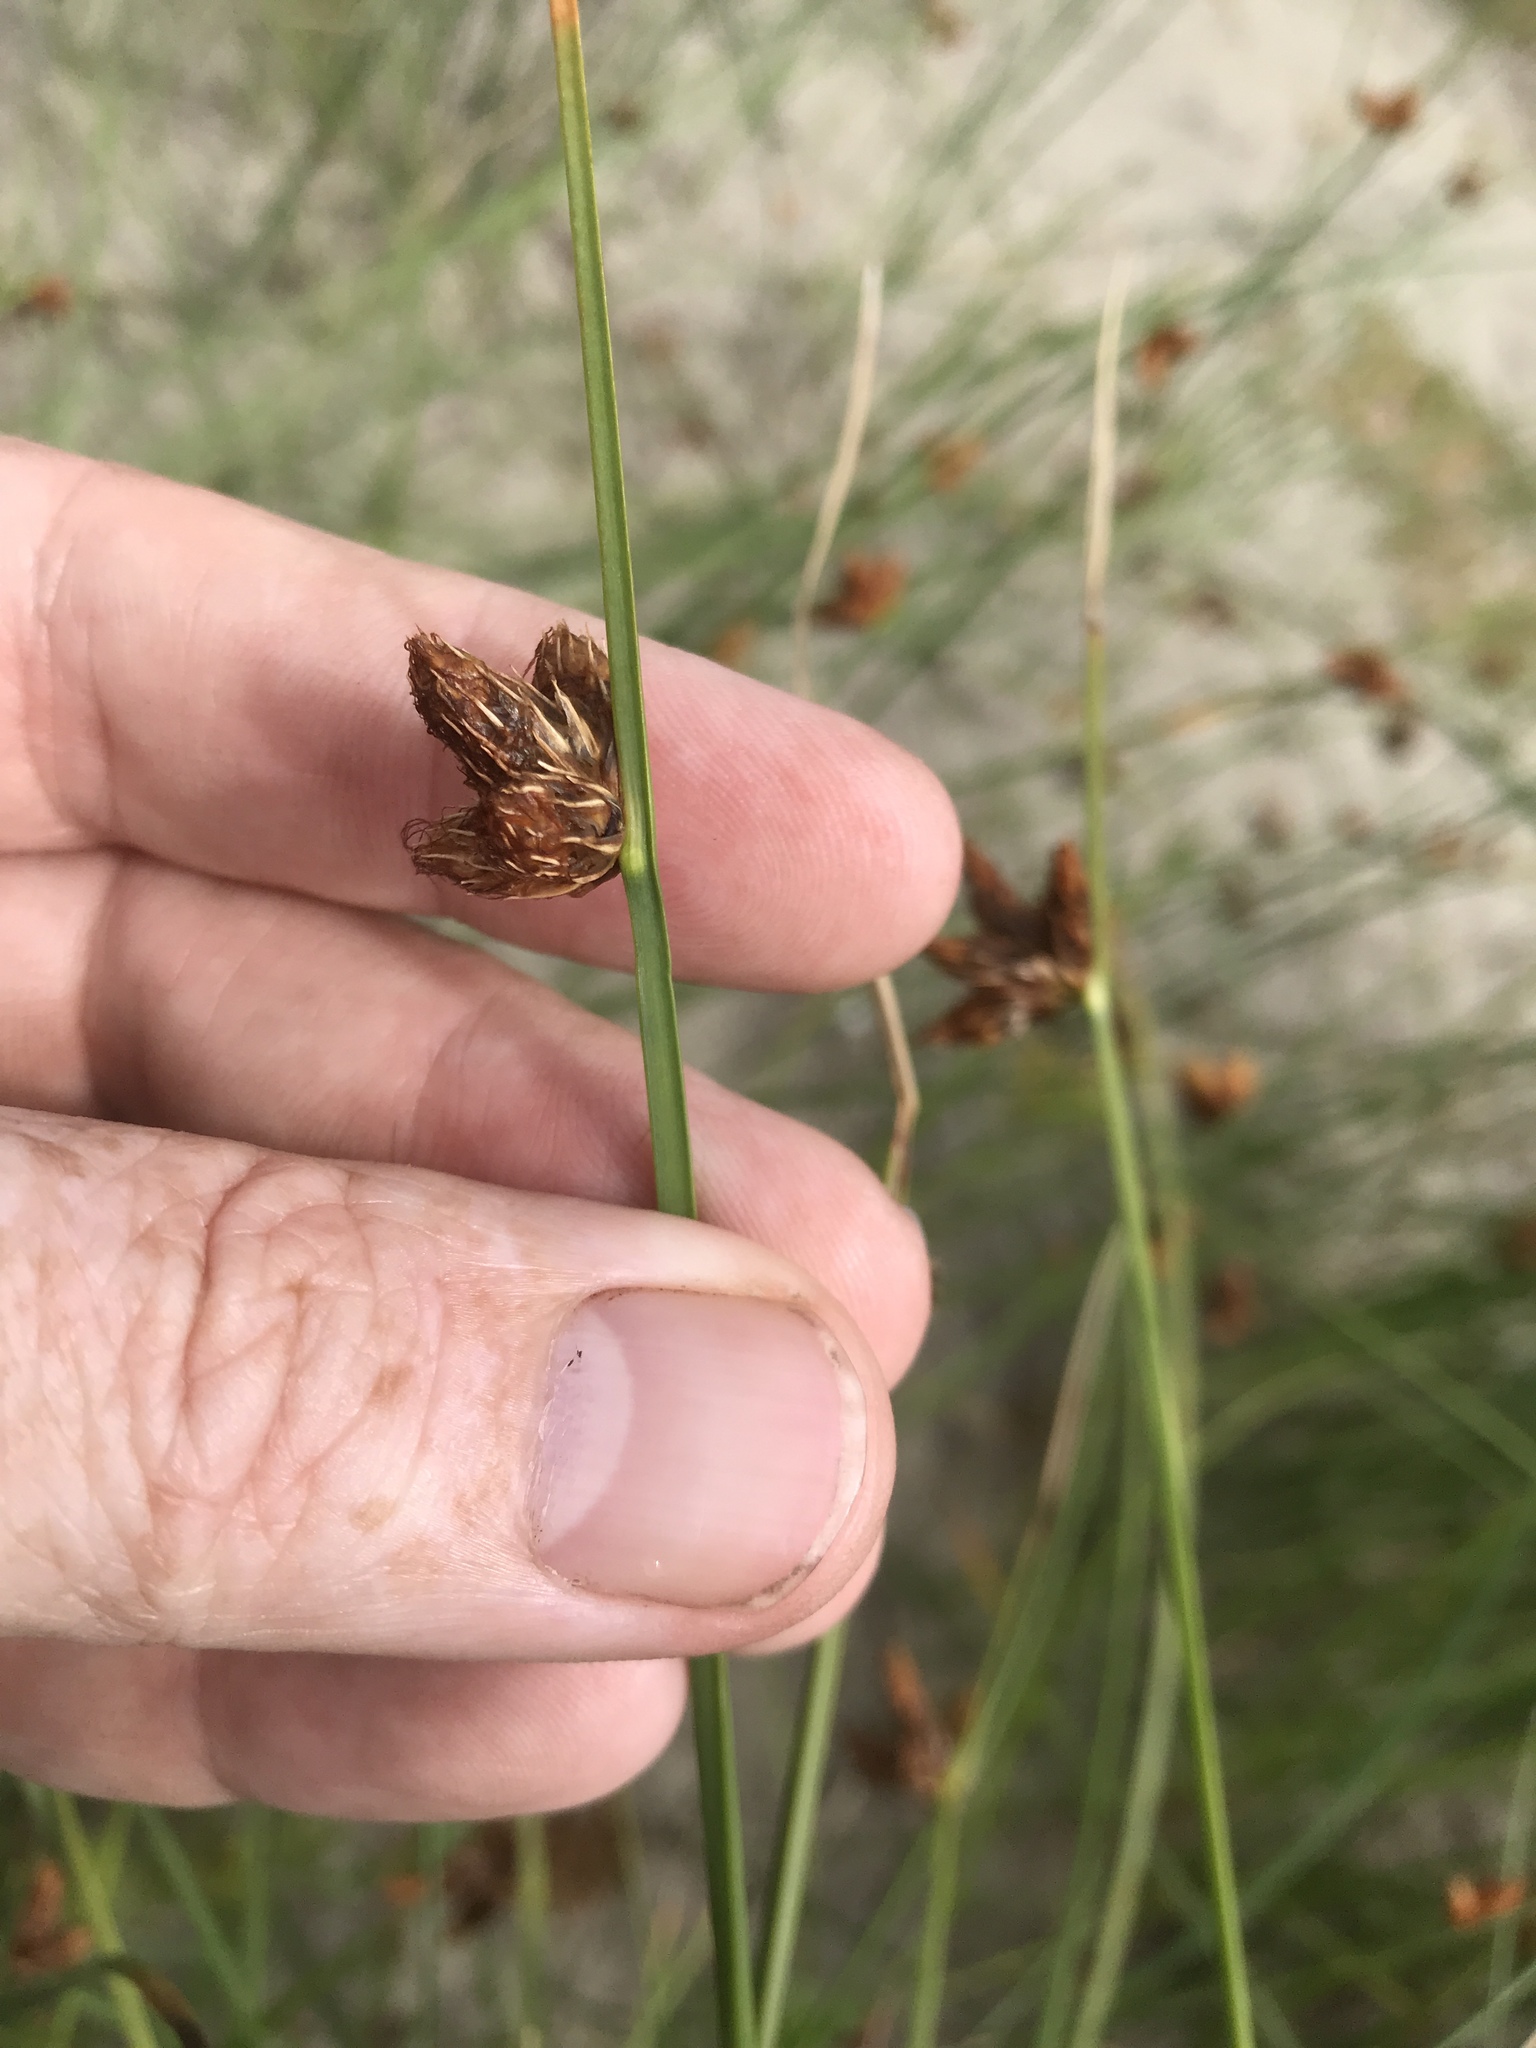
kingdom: Plantae
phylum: Tracheophyta
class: Liliopsida
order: Poales
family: Cyperaceae
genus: Schoenoplectus
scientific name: Schoenoplectus pungens
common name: Sharp club-rush
